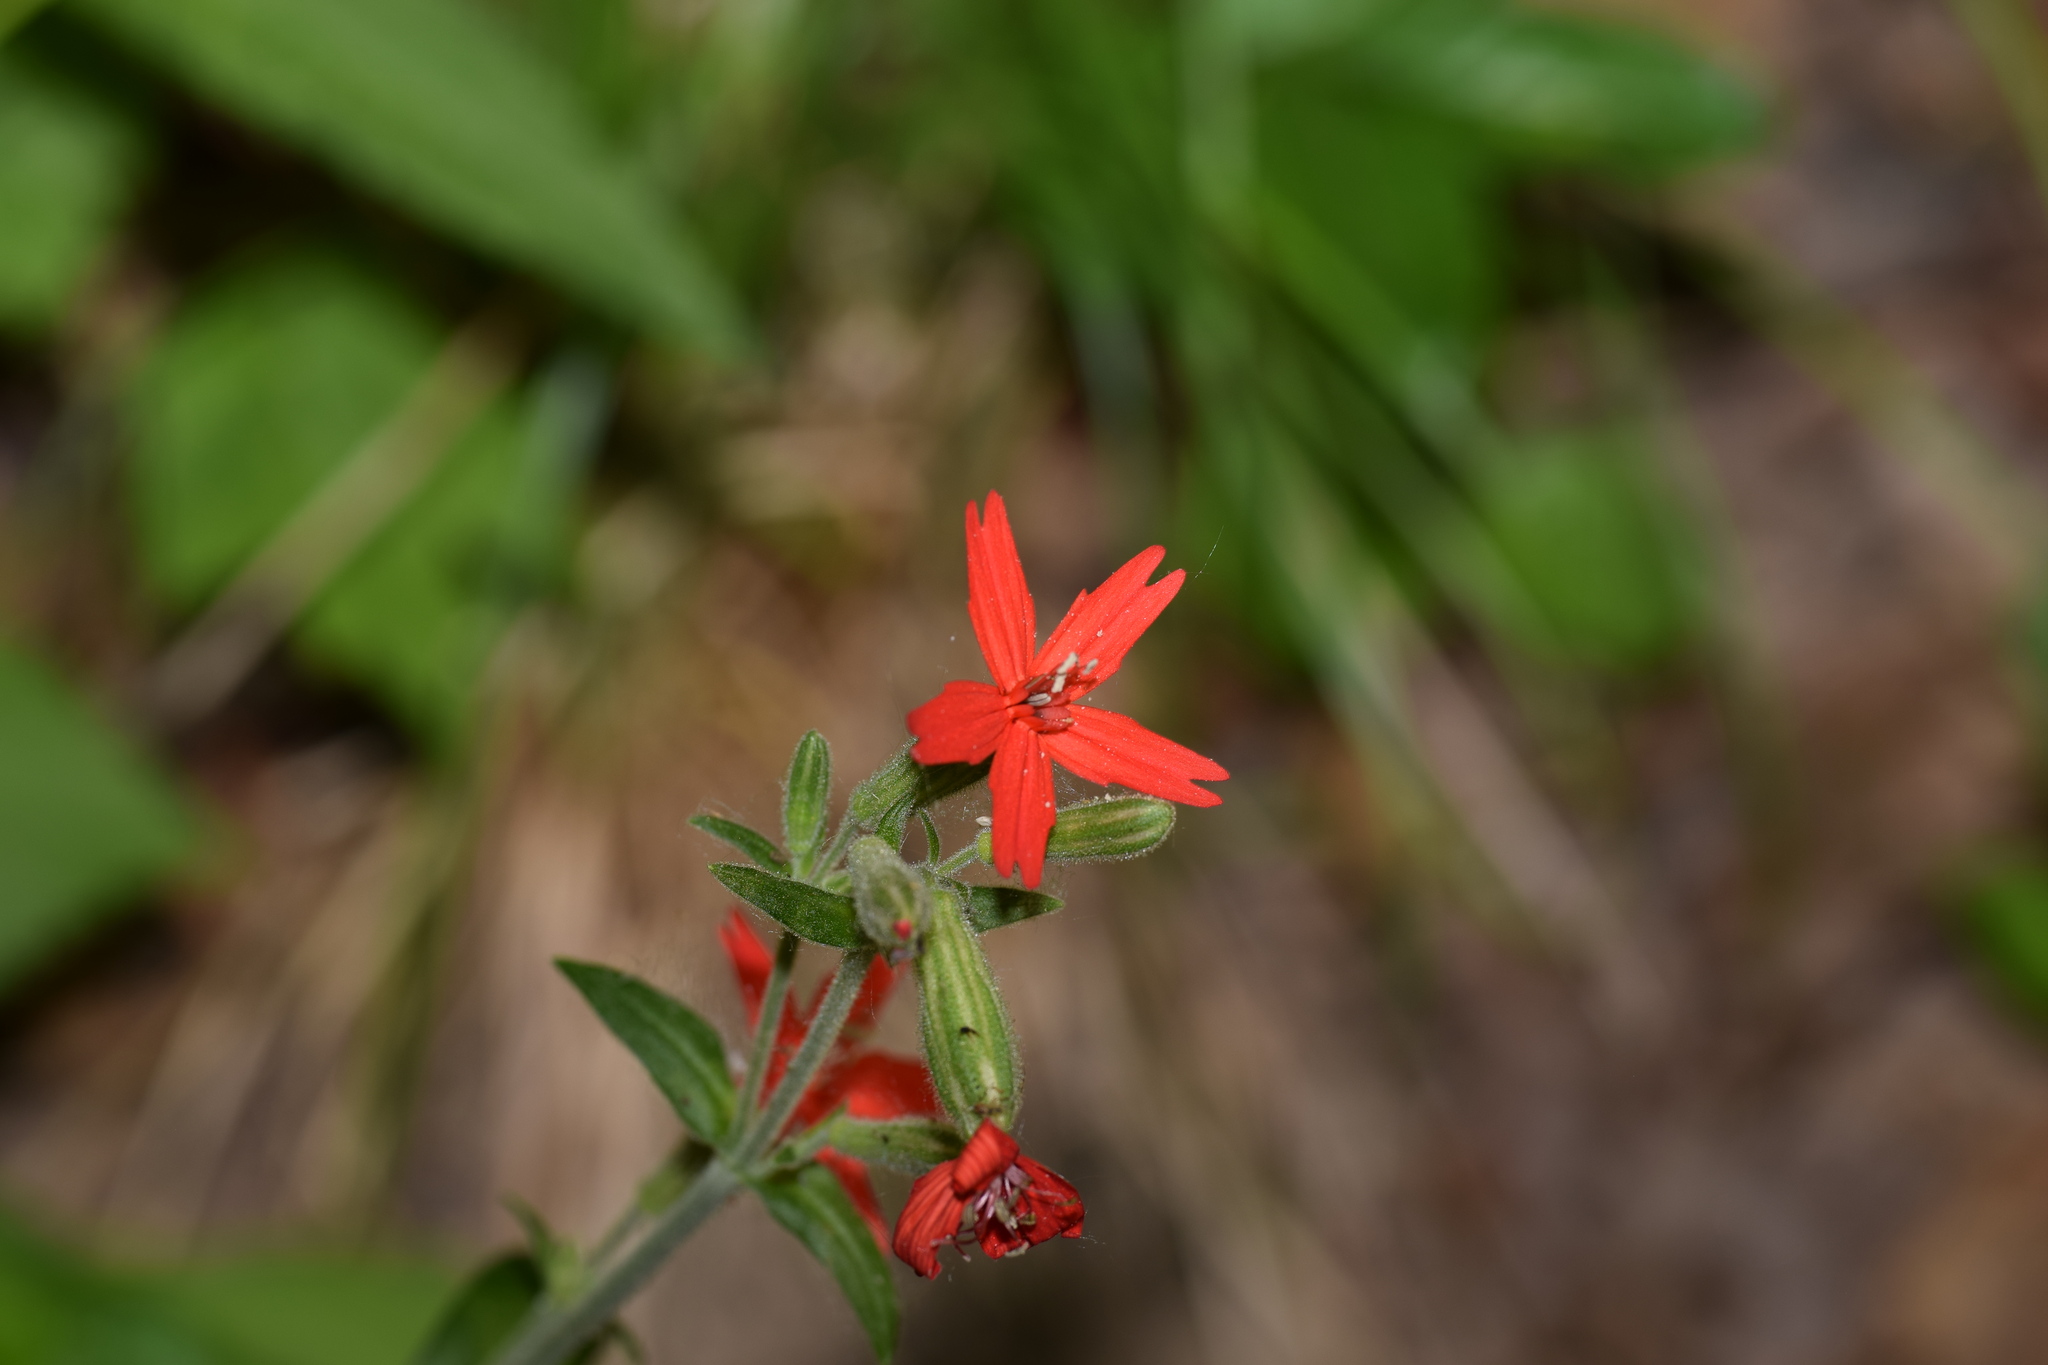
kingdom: Plantae
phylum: Tracheophyta
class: Magnoliopsida
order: Caryophyllales
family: Caryophyllaceae
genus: Silene
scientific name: Silene virginica
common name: Fire-pink
